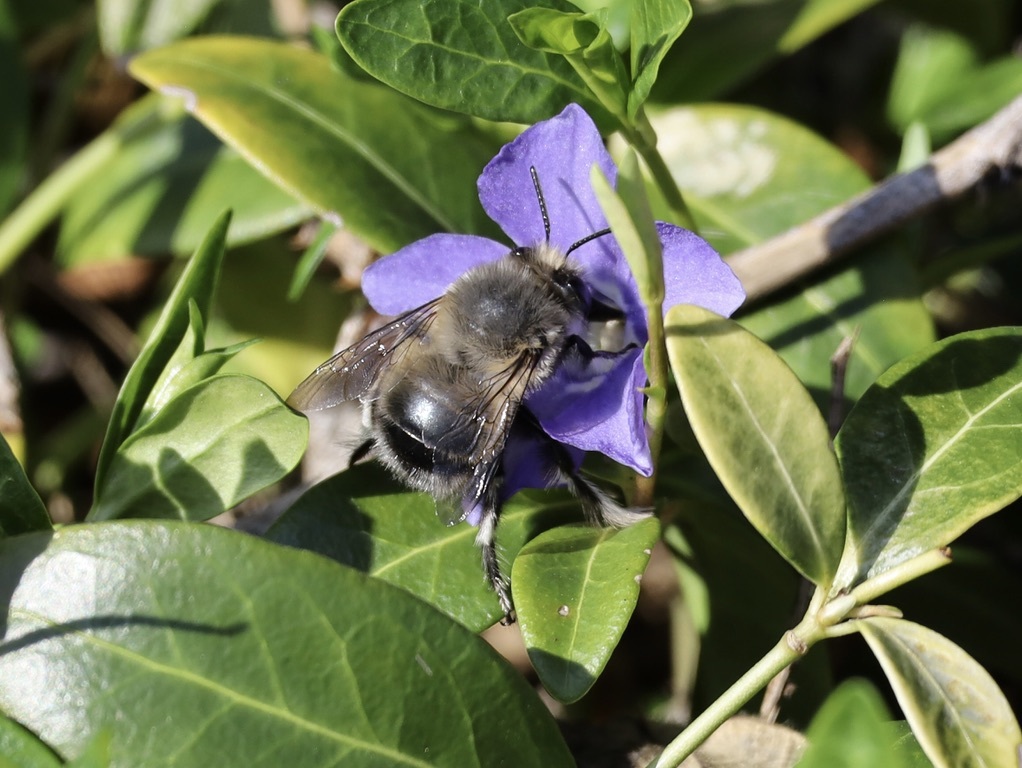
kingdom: Animalia
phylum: Arthropoda
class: Insecta
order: Hymenoptera
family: Apidae
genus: Anthophora
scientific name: Anthophora pacifica
